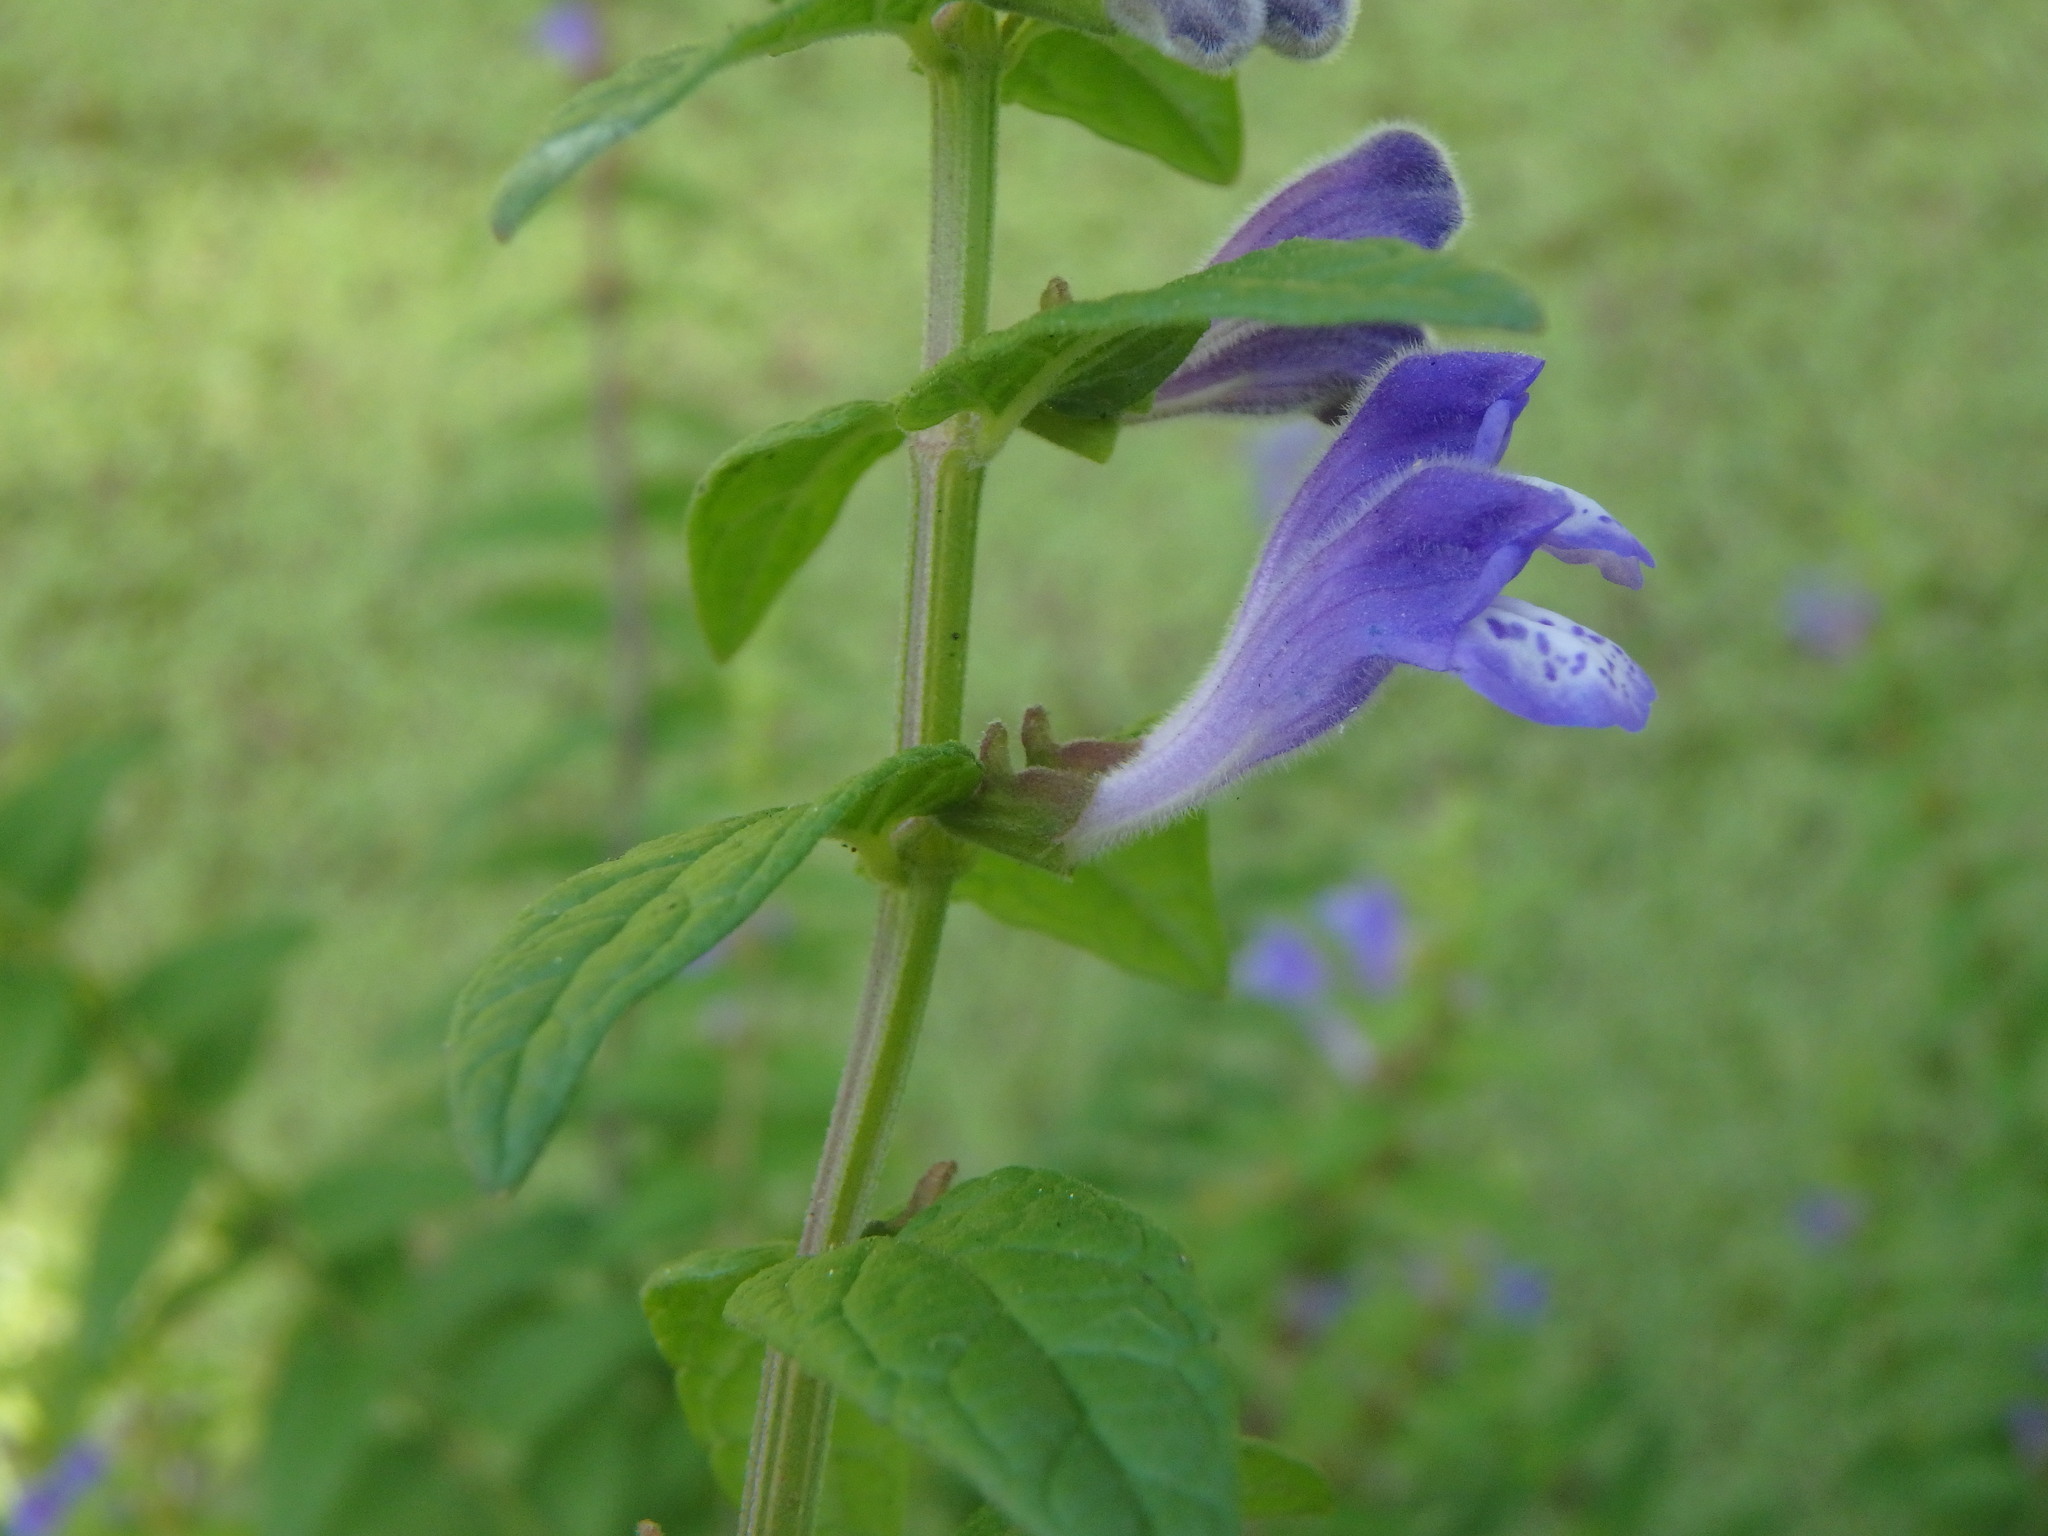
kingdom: Plantae
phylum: Tracheophyta
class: Magnoliopsida
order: Lamiales
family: Lamiaceae
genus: Scutellaria
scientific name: Scutellaria galericulata
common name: Skullcap
